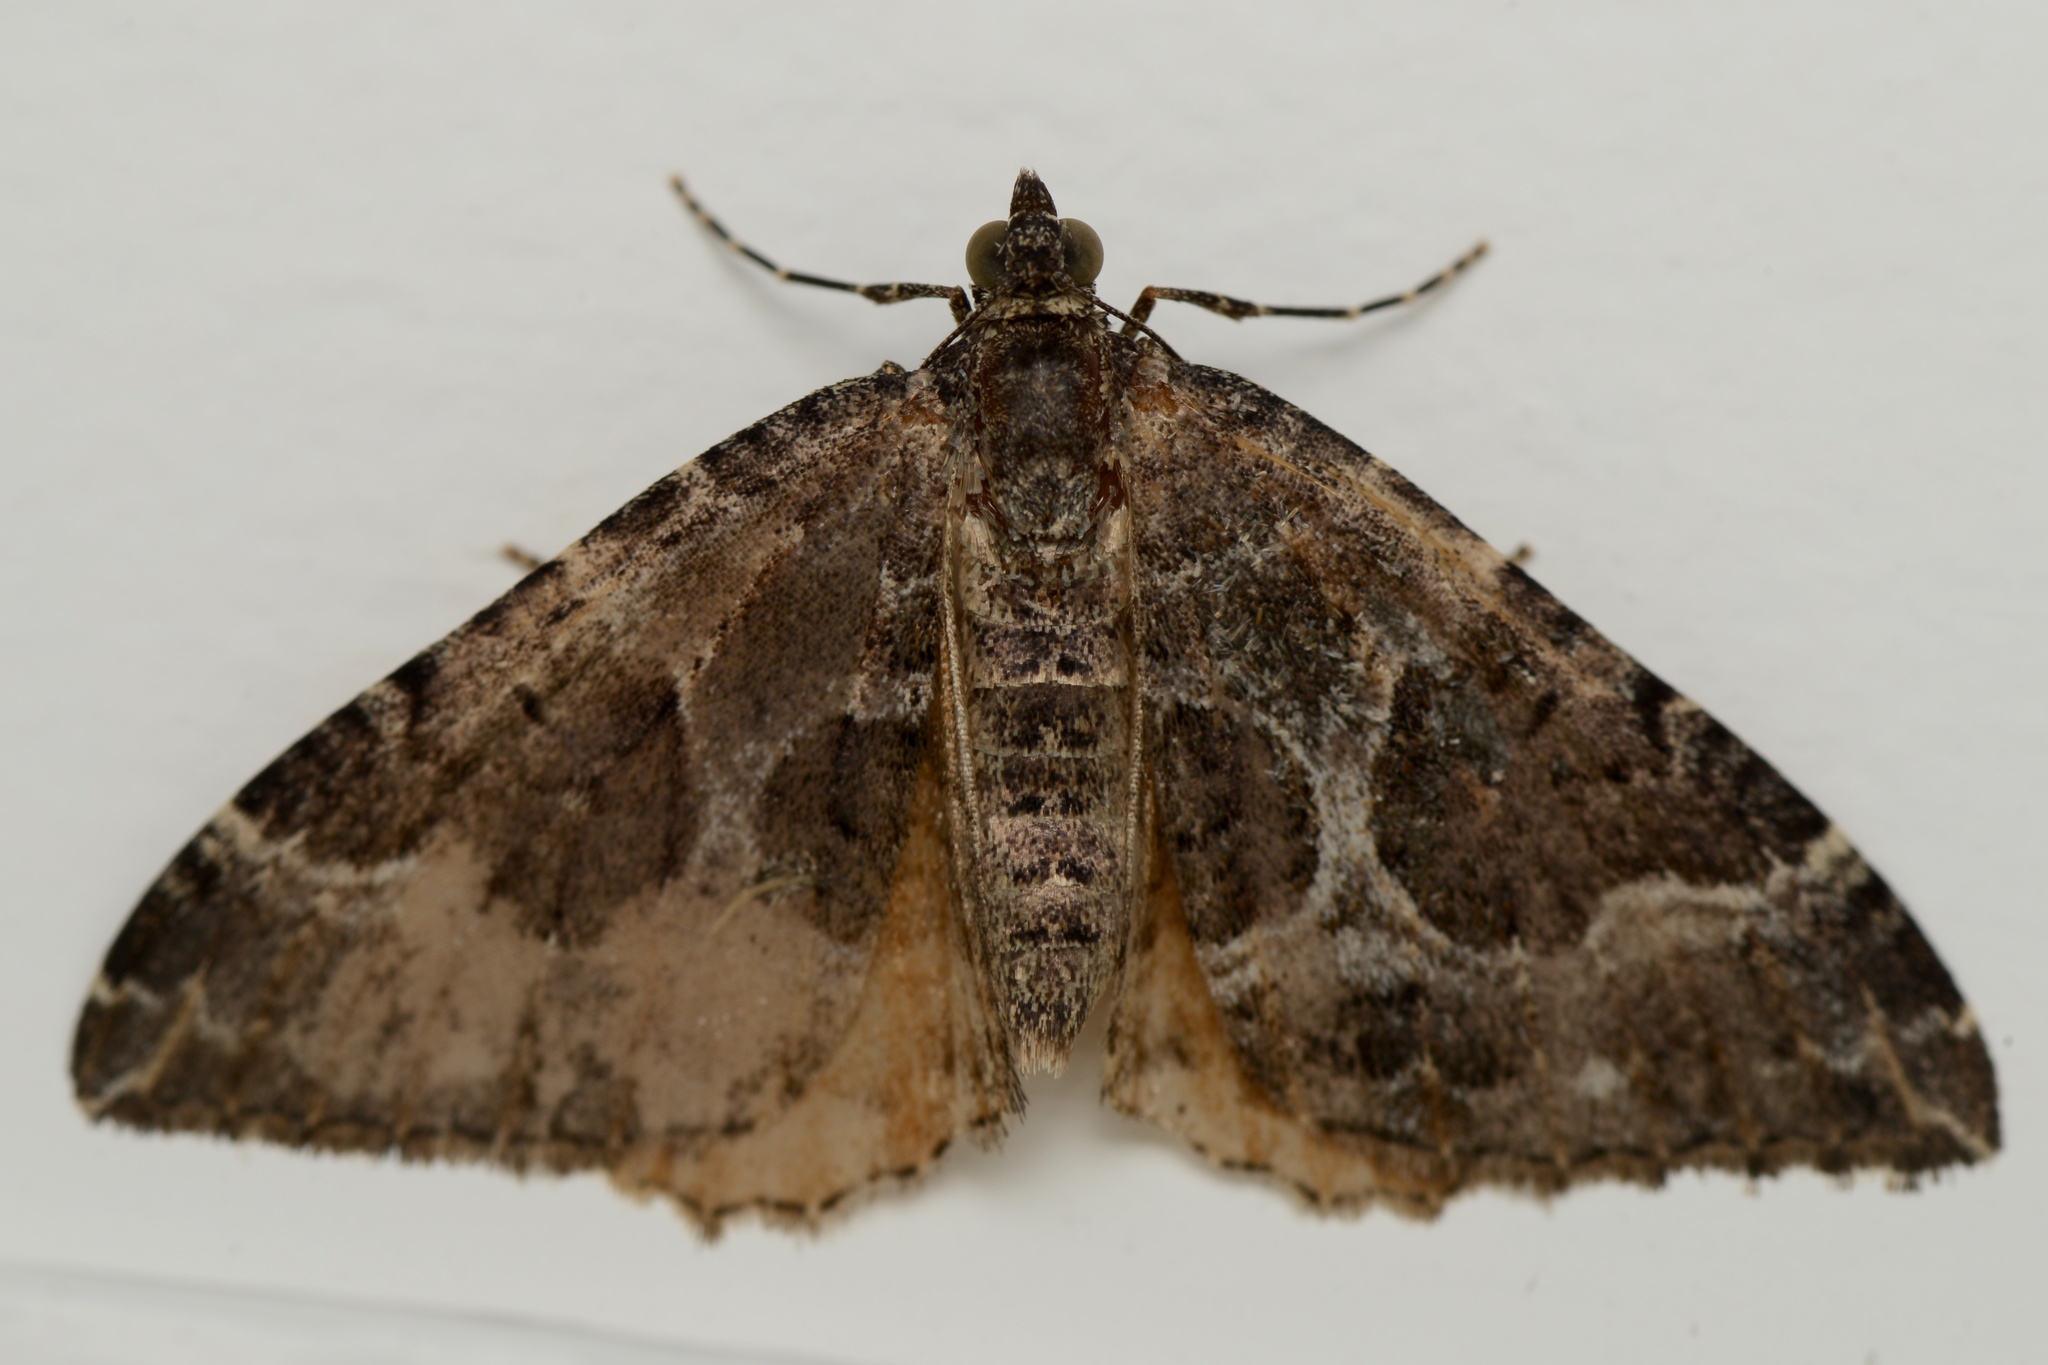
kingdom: Animalia
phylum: Arthropoda
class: Insecta
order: Lepidoptera
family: Geometridae
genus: Hydriomena
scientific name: Hydriomena deltoidata
